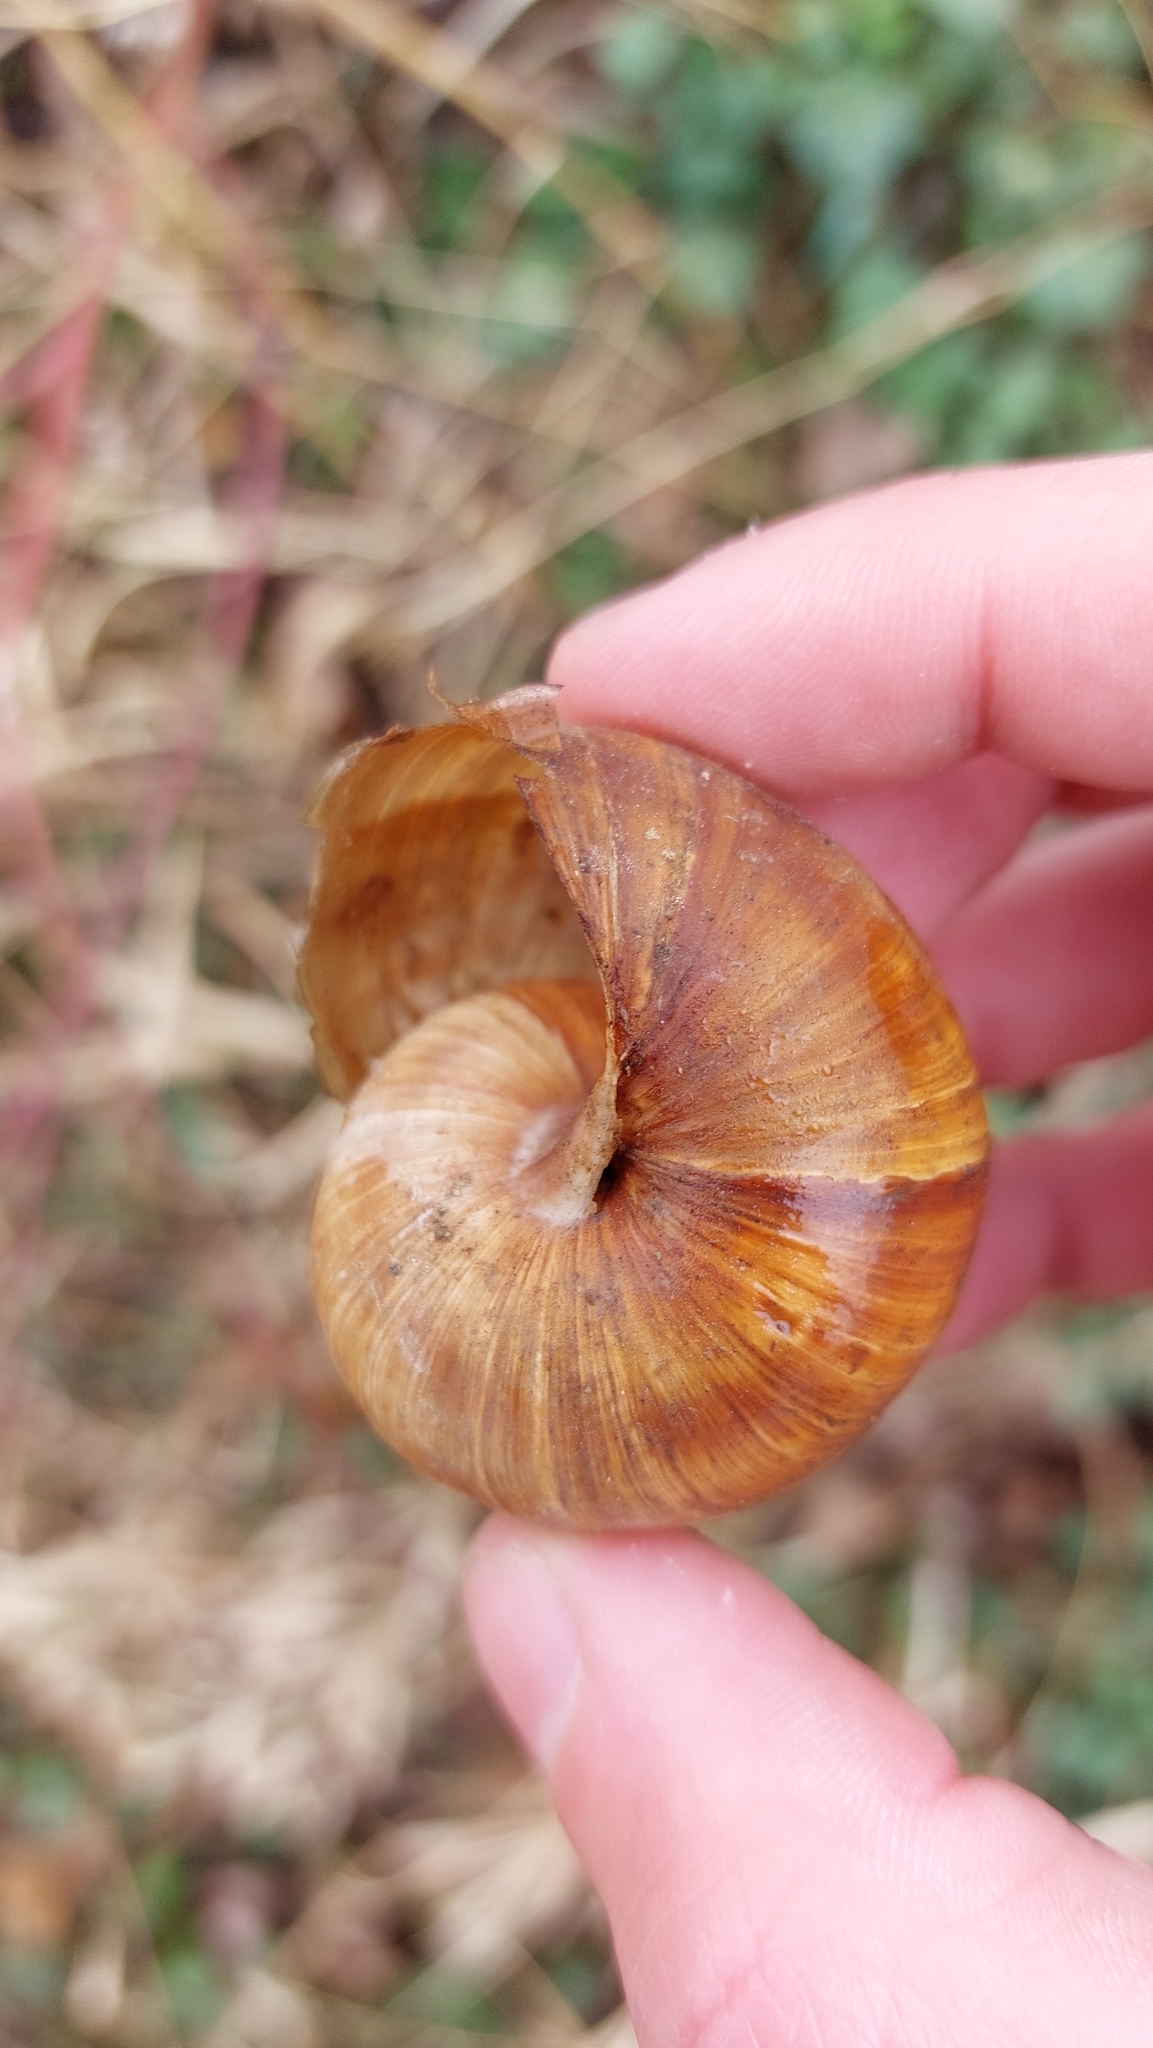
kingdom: Animalia
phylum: Mollusca
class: Gastropoda
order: Stylommatophora
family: Helicidae
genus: Helix
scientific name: Helix pomatia
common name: Roman snail
